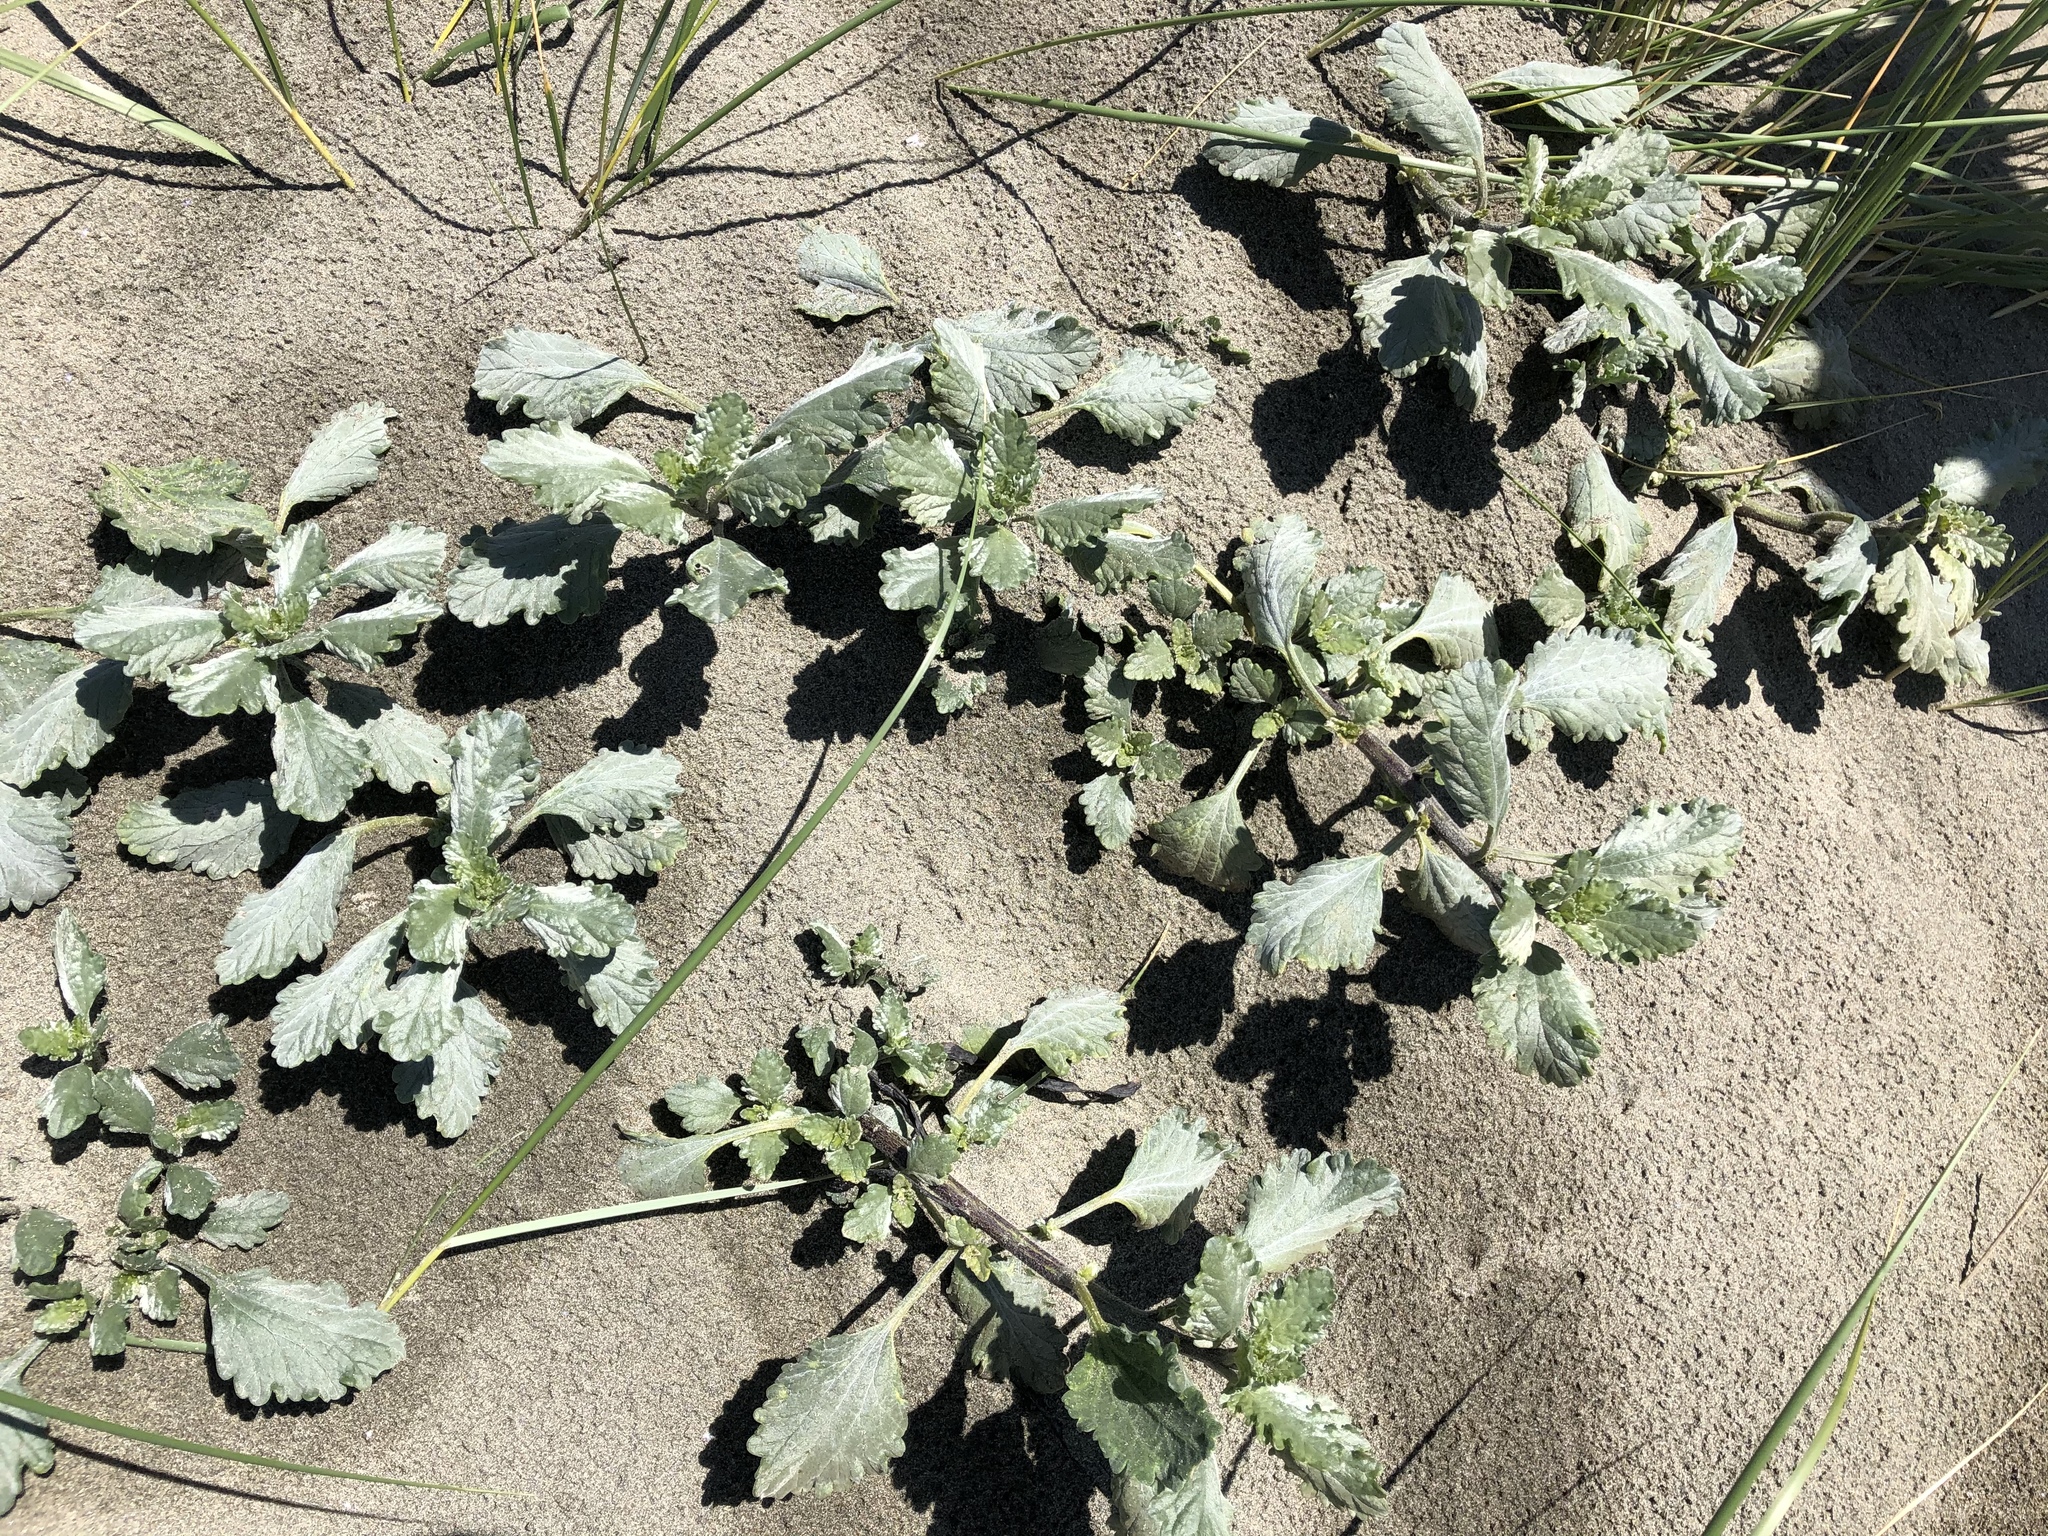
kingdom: Plantae
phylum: Tracheophyta
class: Magnoliopsida
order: Asterales
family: Asteraceae
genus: Ambrosia
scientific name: Ambrosia chamissonis
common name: Beachbur
